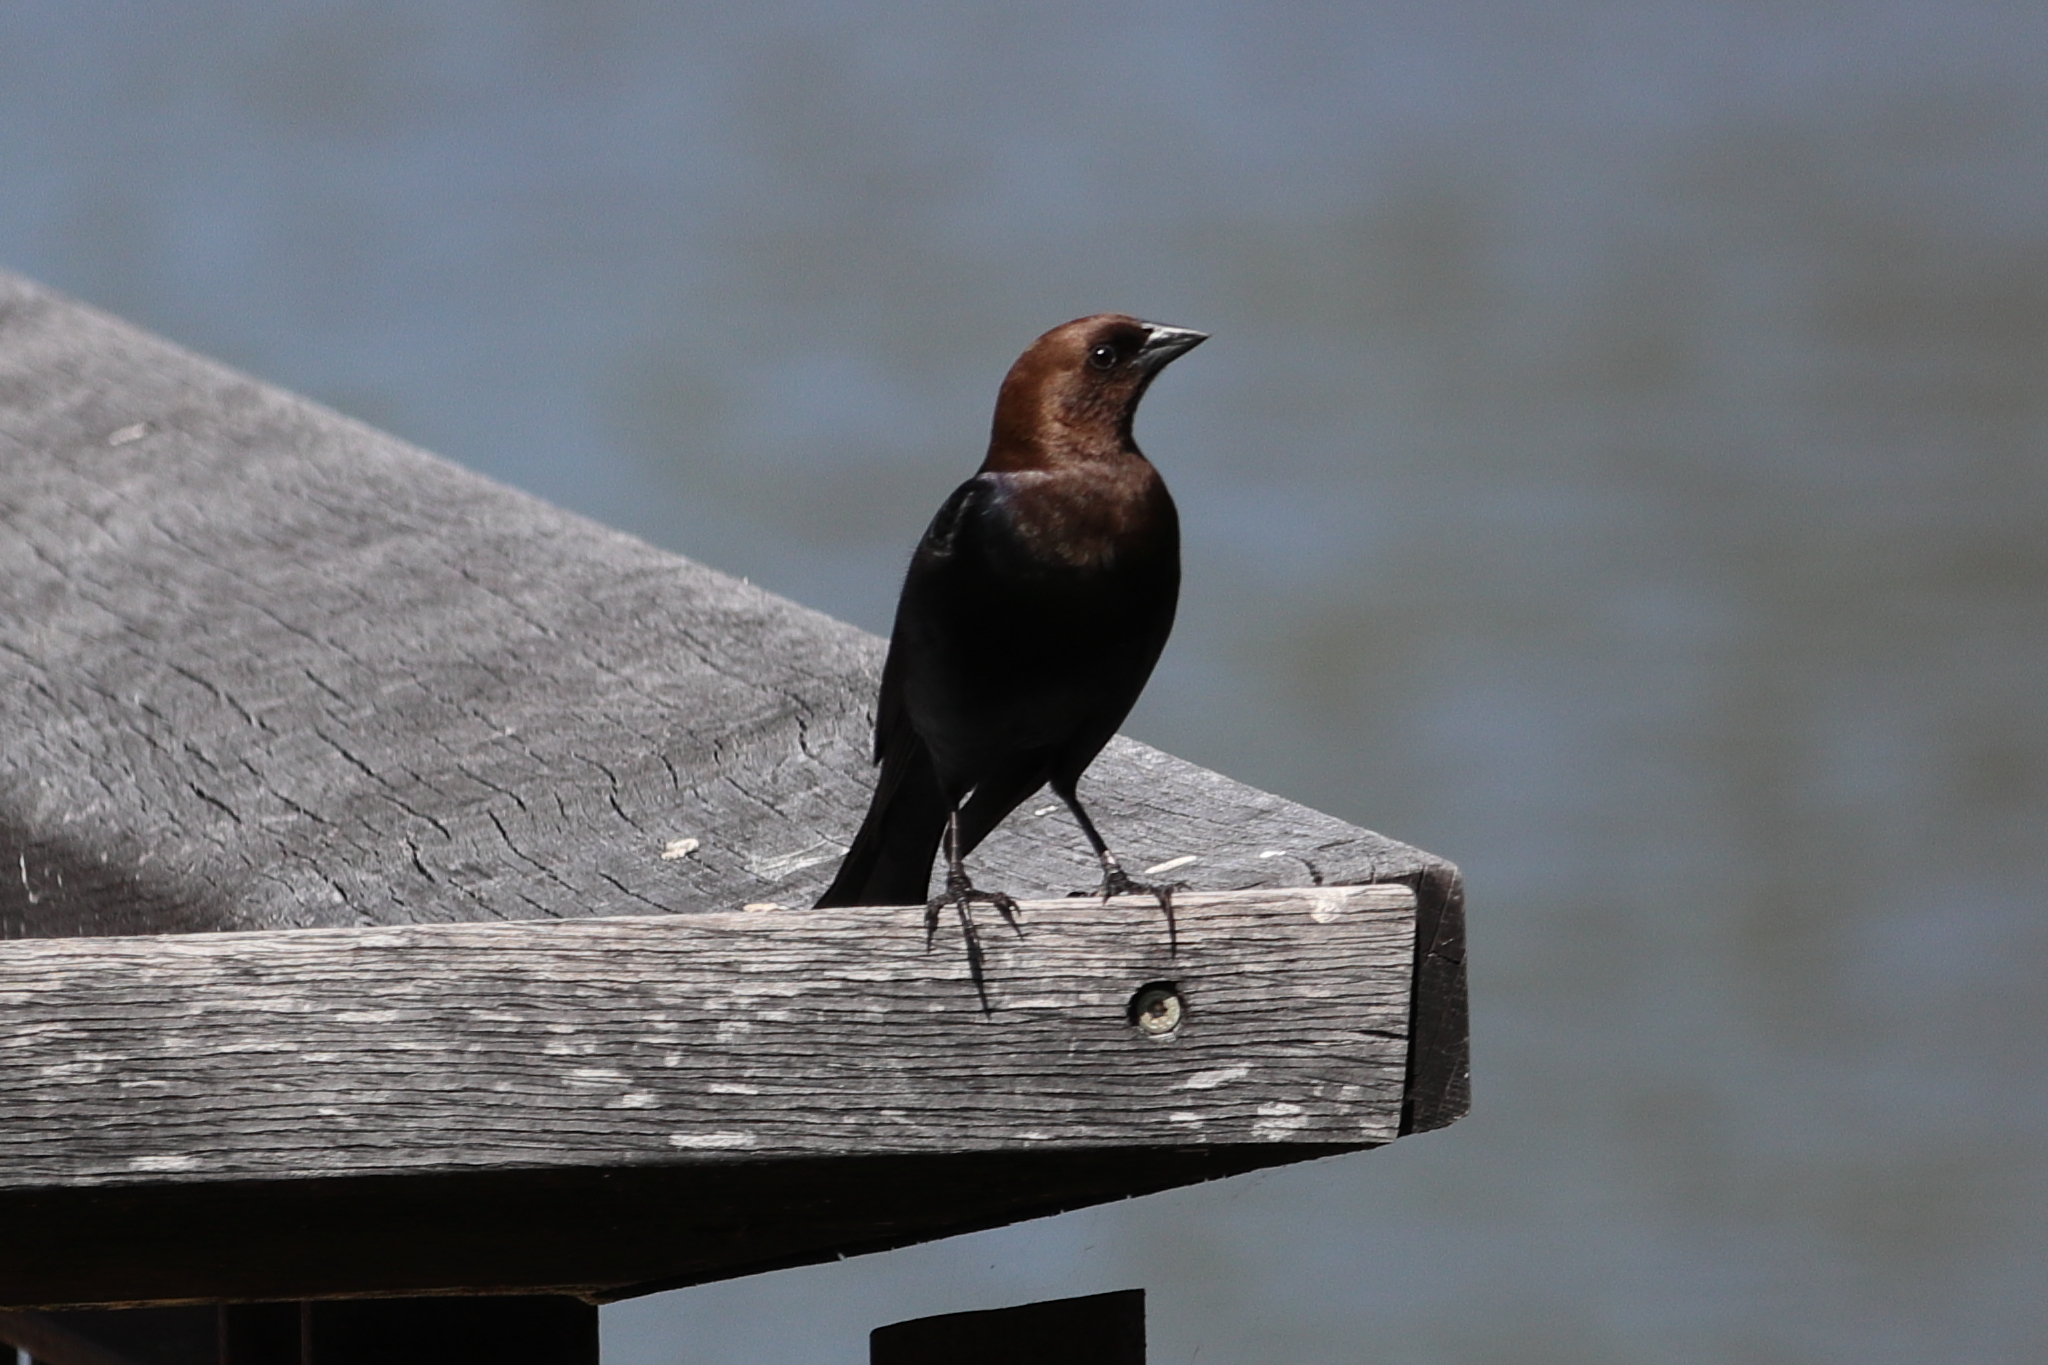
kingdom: Animalia
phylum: Chordata
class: Aves
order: Passeriformes
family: Icteridae
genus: Molothrus
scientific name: Molothrus ater
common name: Brown-headed cowbird
